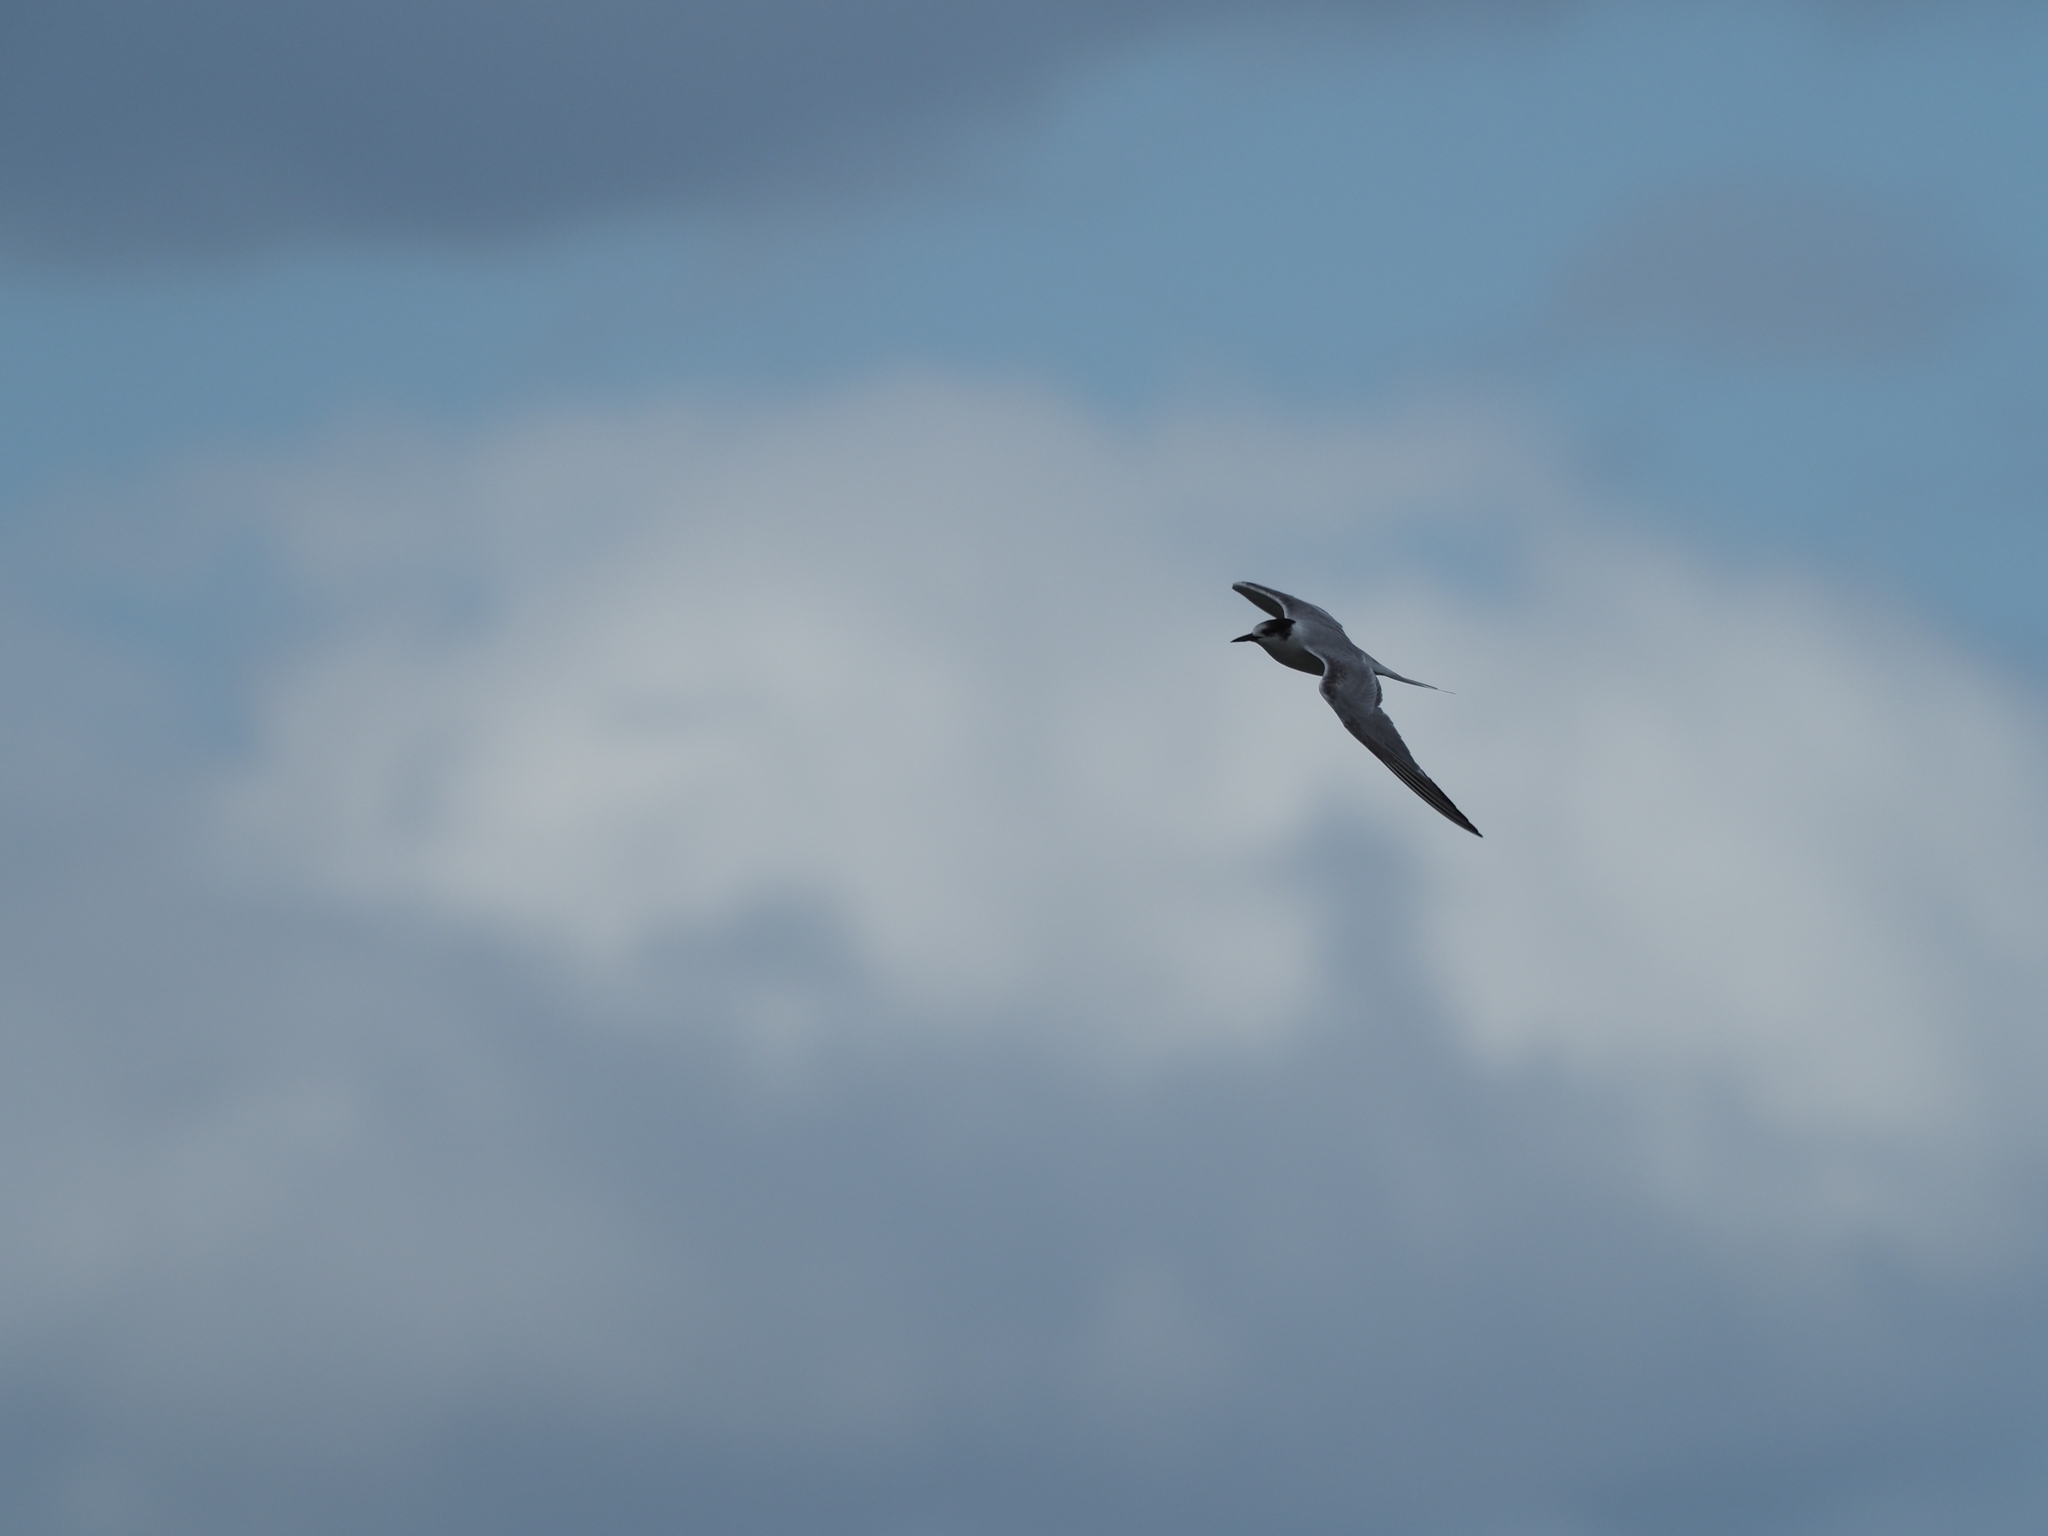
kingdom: Animalia
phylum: Chordata
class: Aves
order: Charadriiformes
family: Laridae
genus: Sterna
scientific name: Sterna hirundo
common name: Common tern
